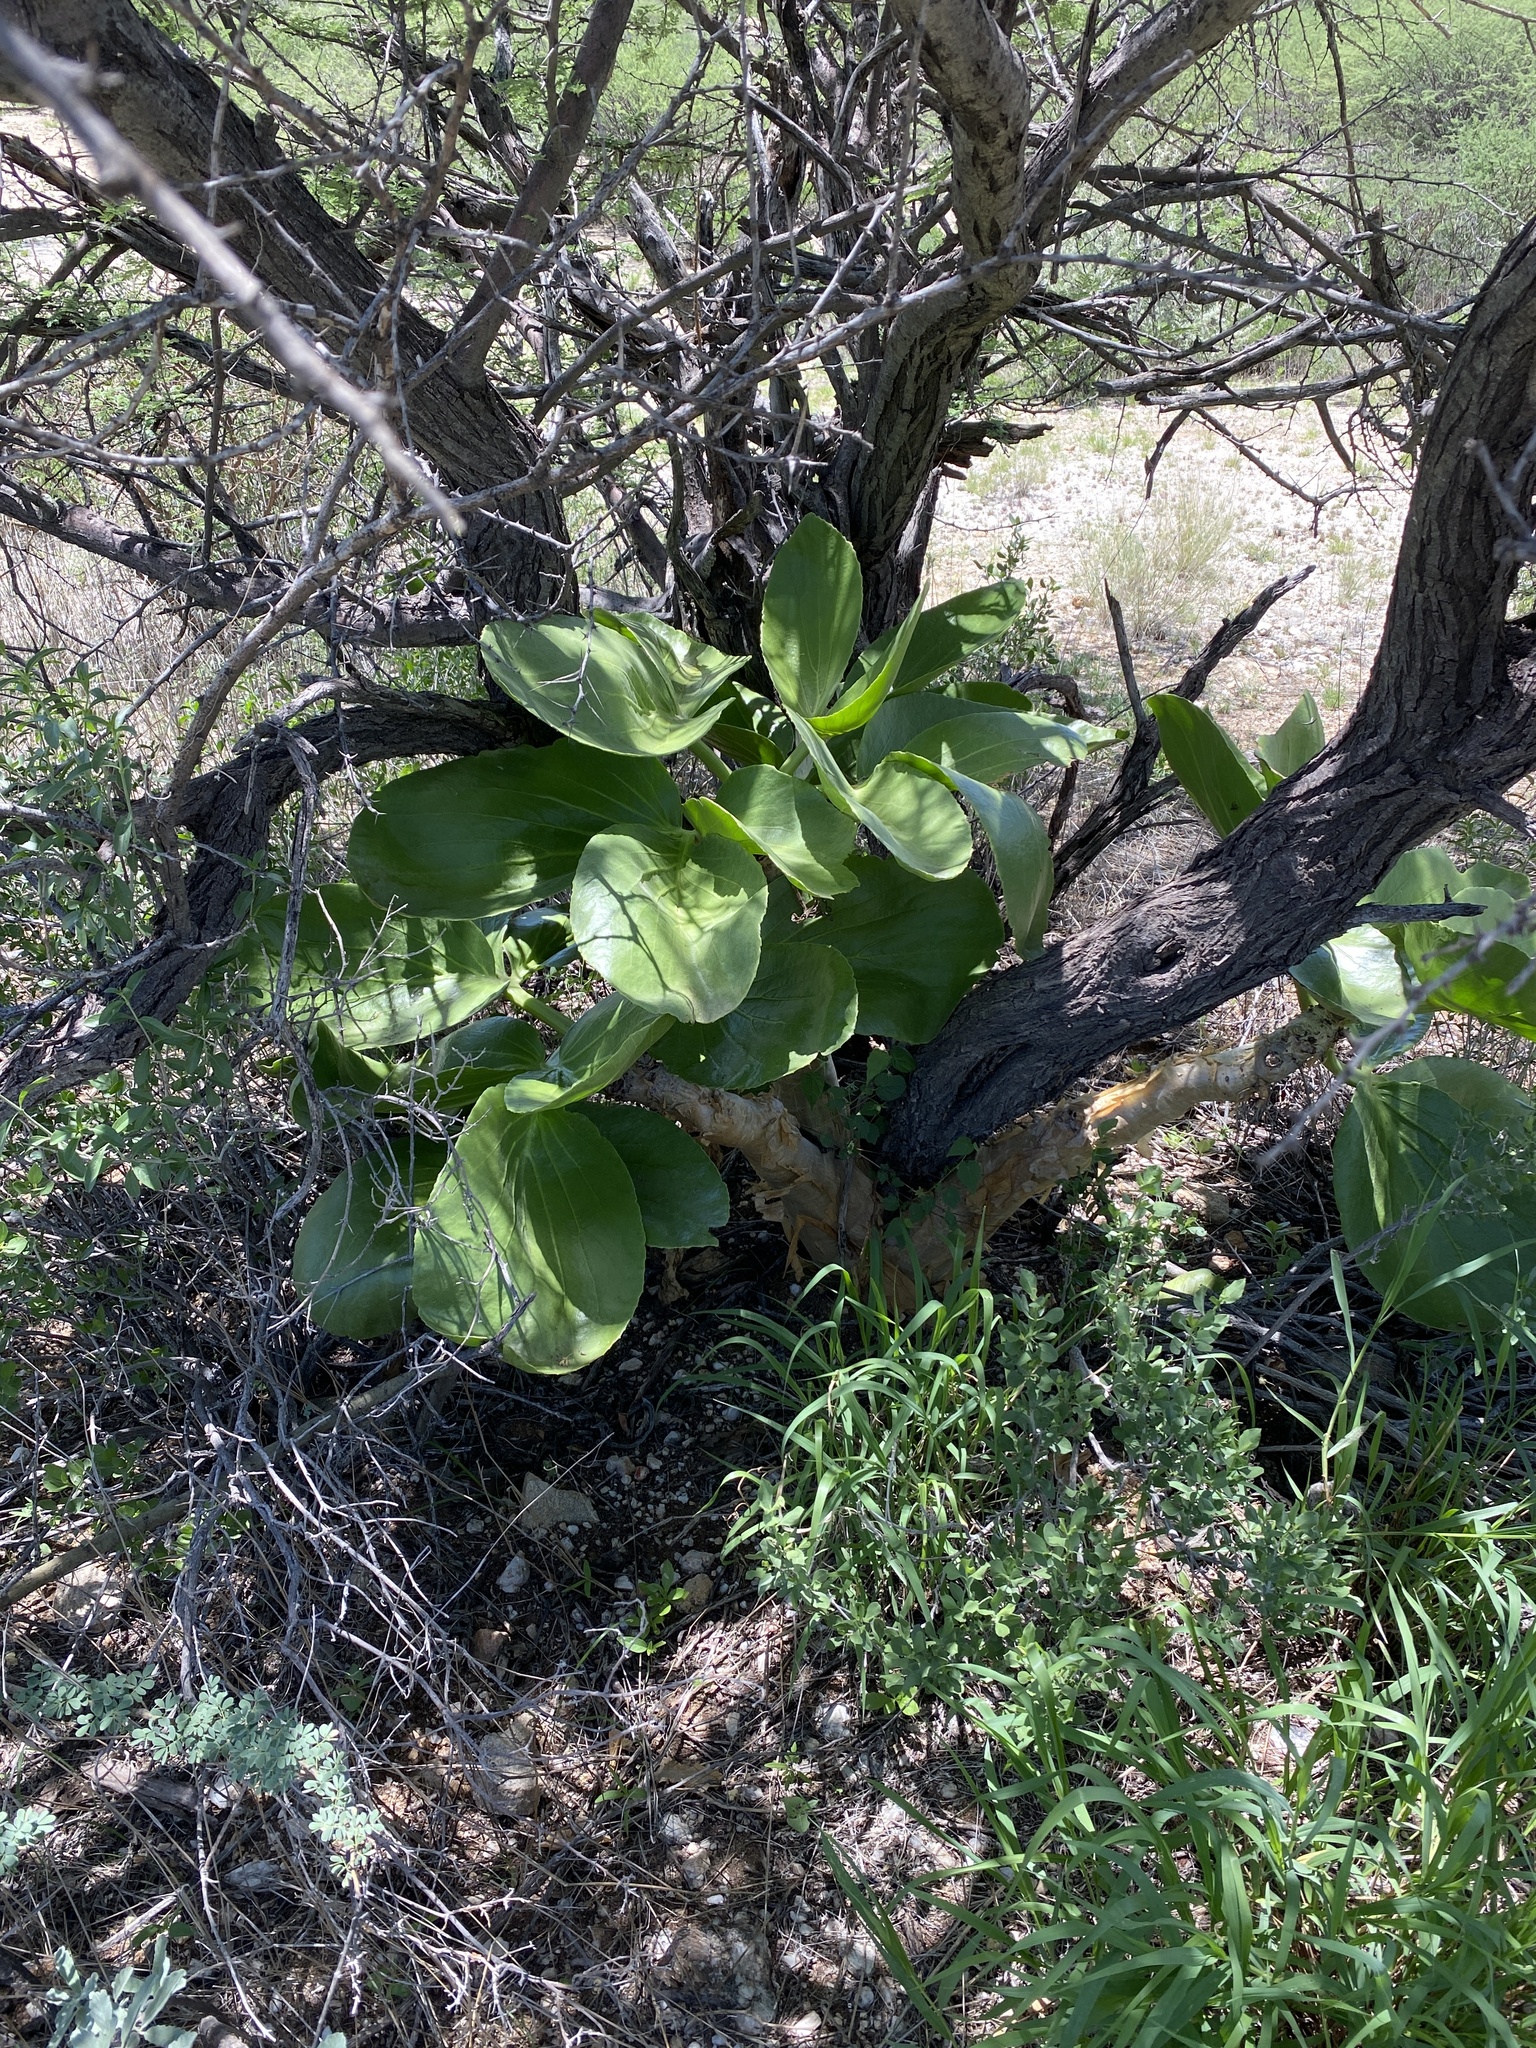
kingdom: Plantae
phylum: Tracheophyta
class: Magnoliopsida
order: Vitales
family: Vitaceae
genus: Cyphostemma
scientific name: Cyphostemma currorii
